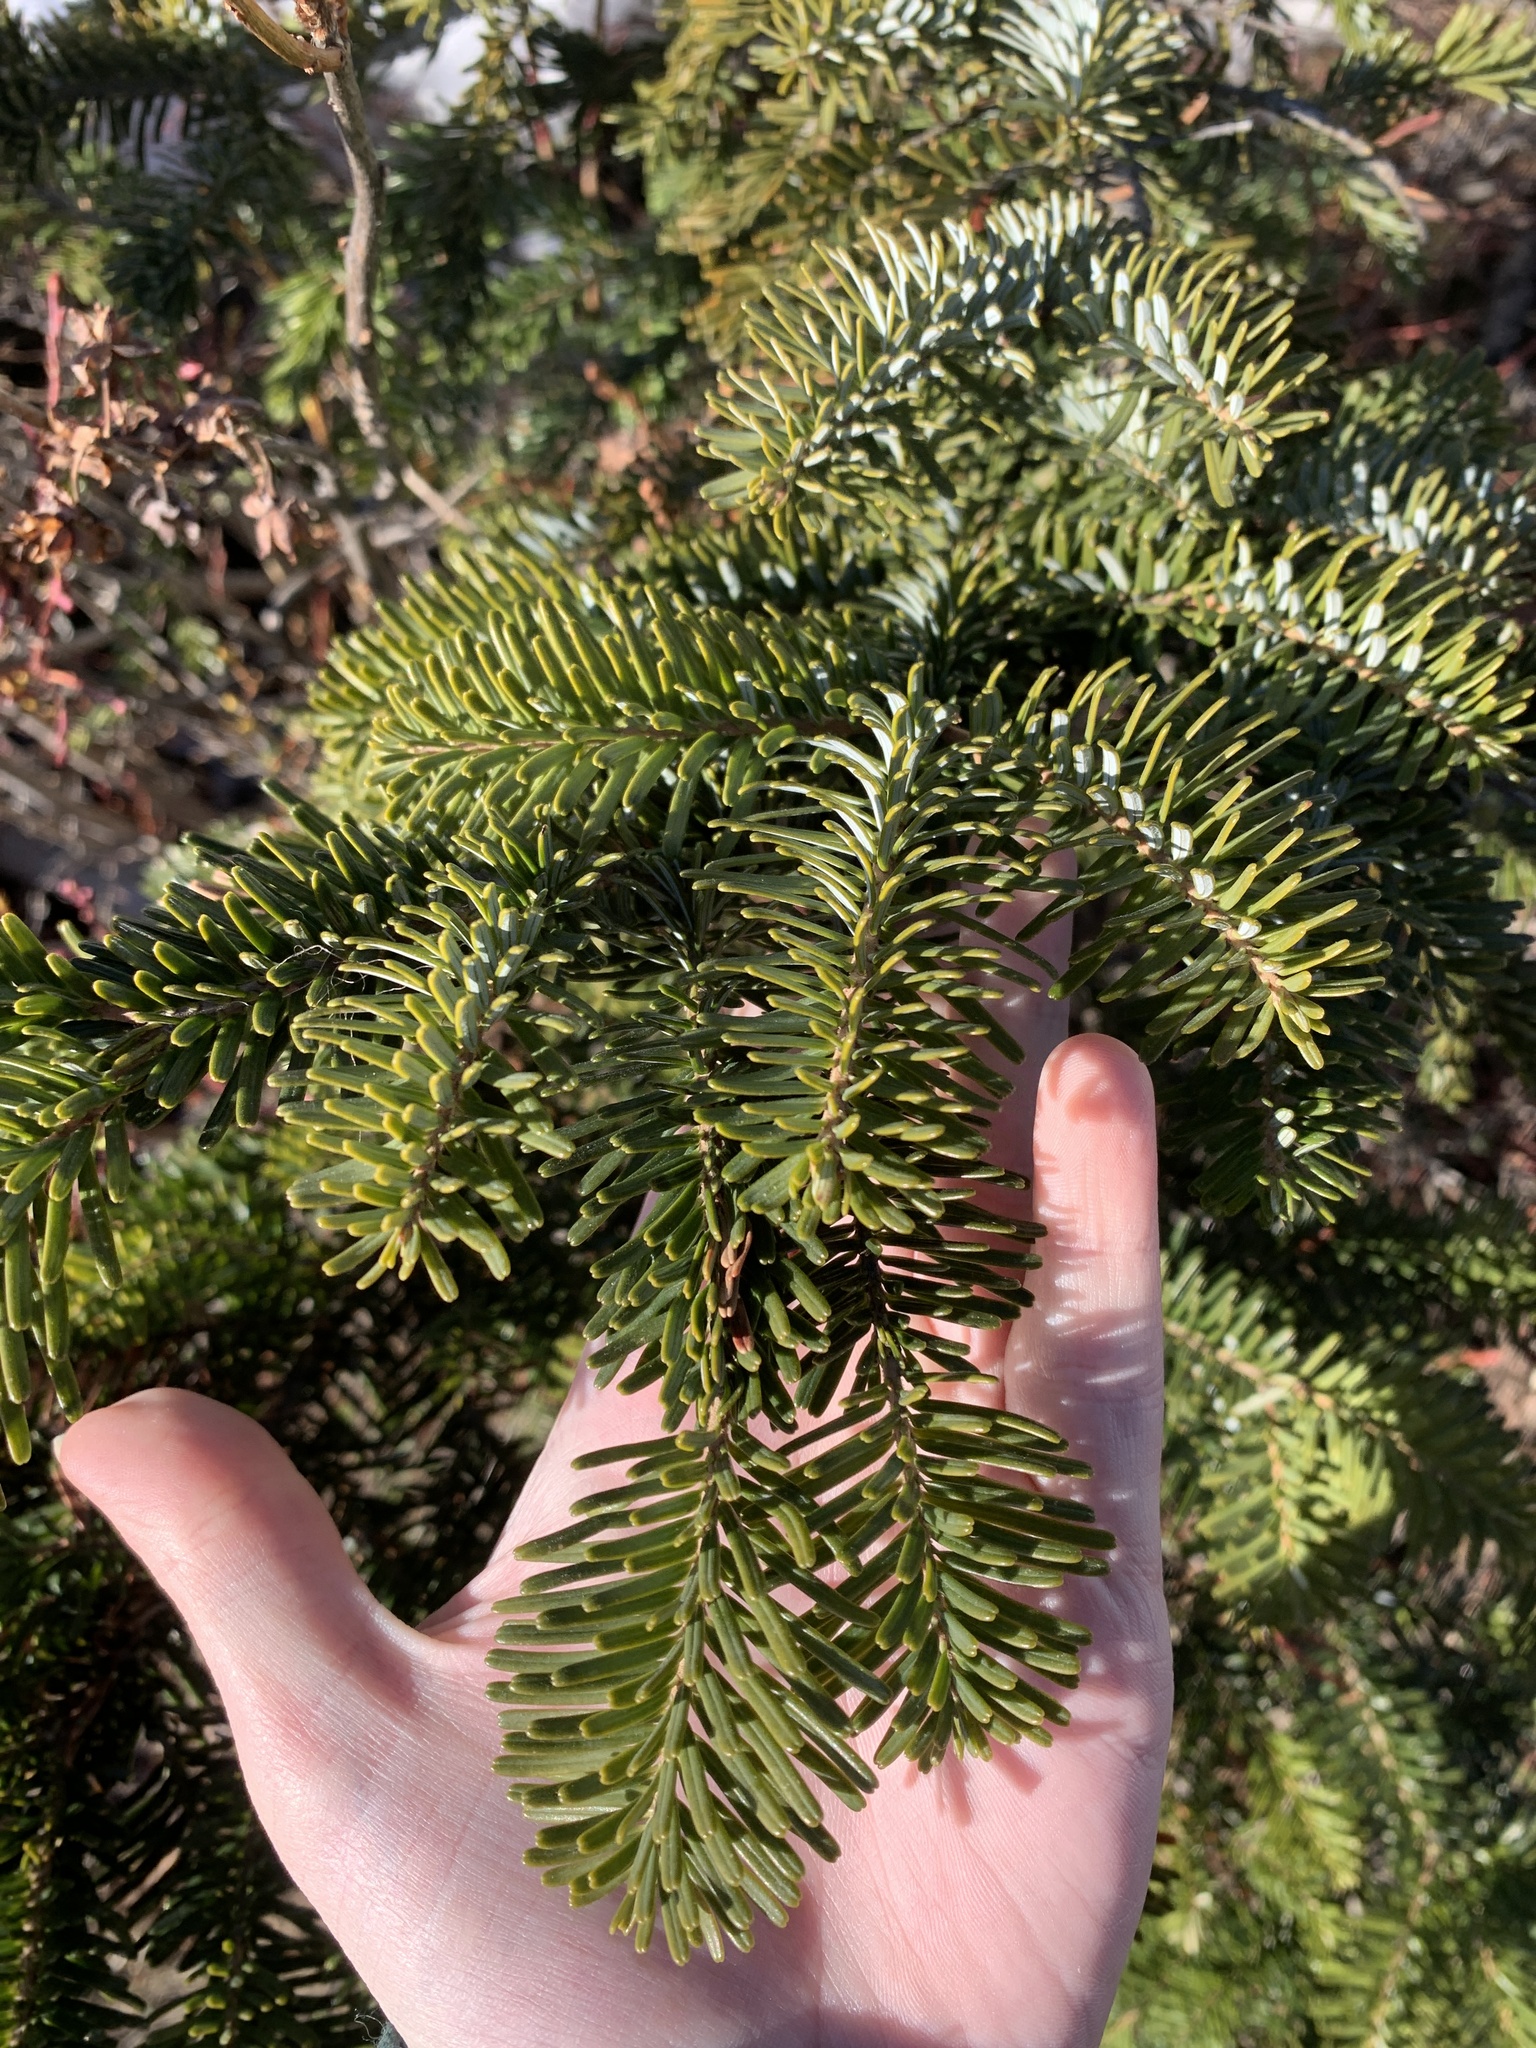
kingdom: Plantae
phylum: Tracheophyta
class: Pinopsida
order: Pinales
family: Pinaceae
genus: Abies
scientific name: Abies lasiocarpa
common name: Subalpine fir
